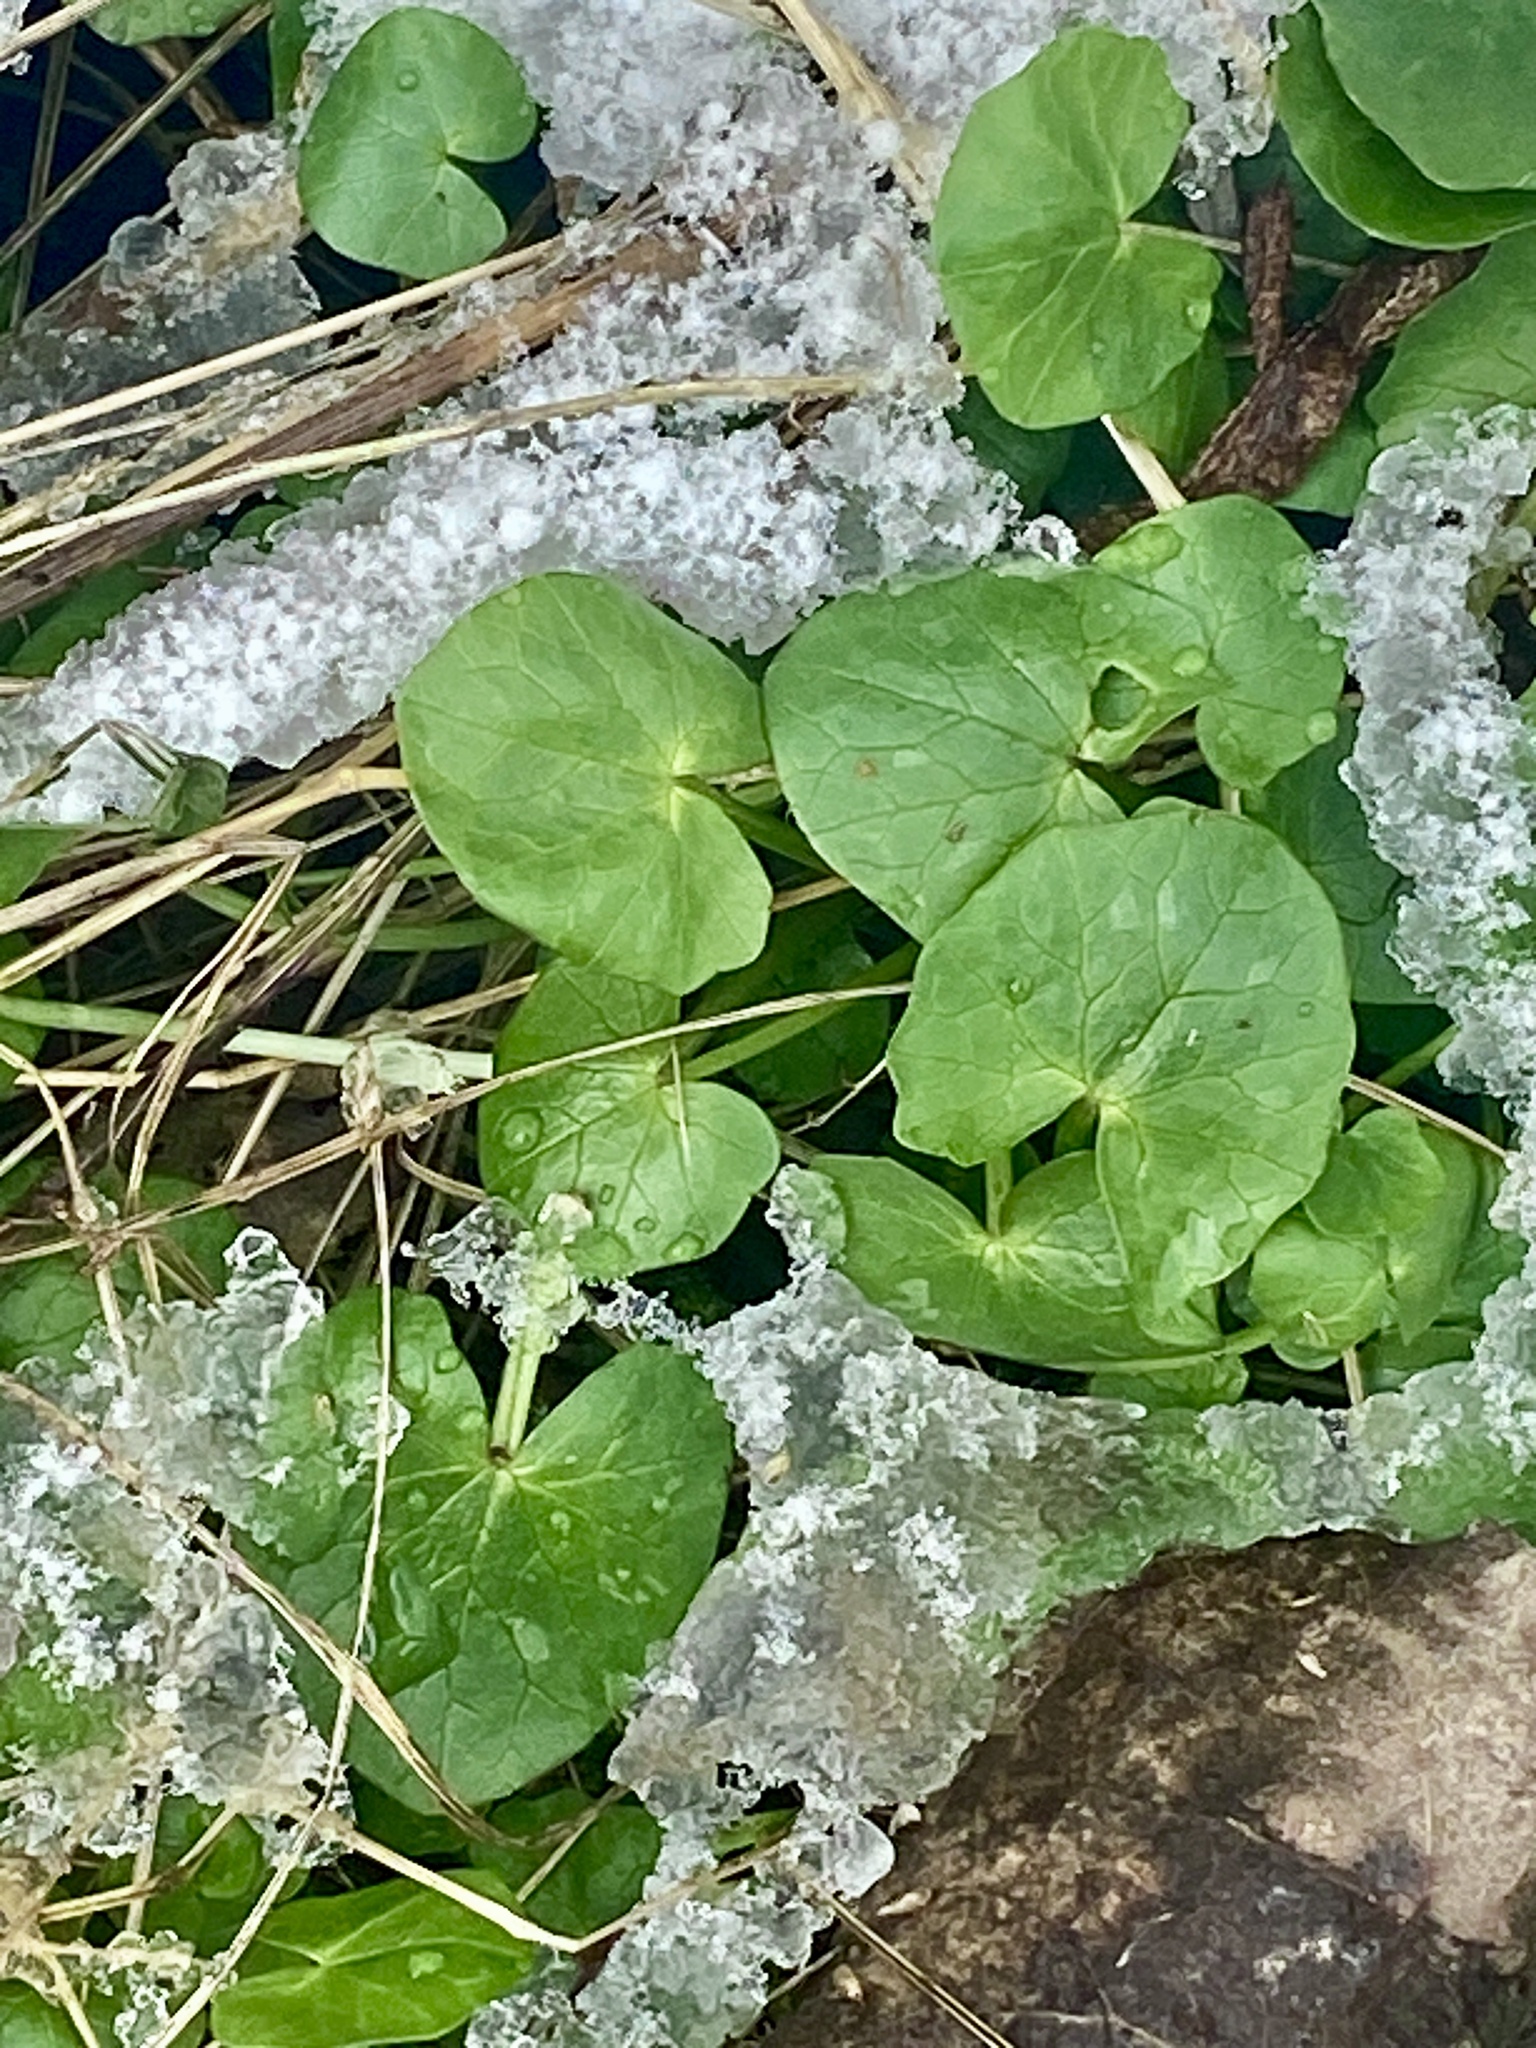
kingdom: Plantae
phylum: Tracheophyta
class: Magnoliopsida
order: Ranunculales
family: Ranunculaceae
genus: Ficaria
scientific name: Ficaria verna
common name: Lesser celandine
